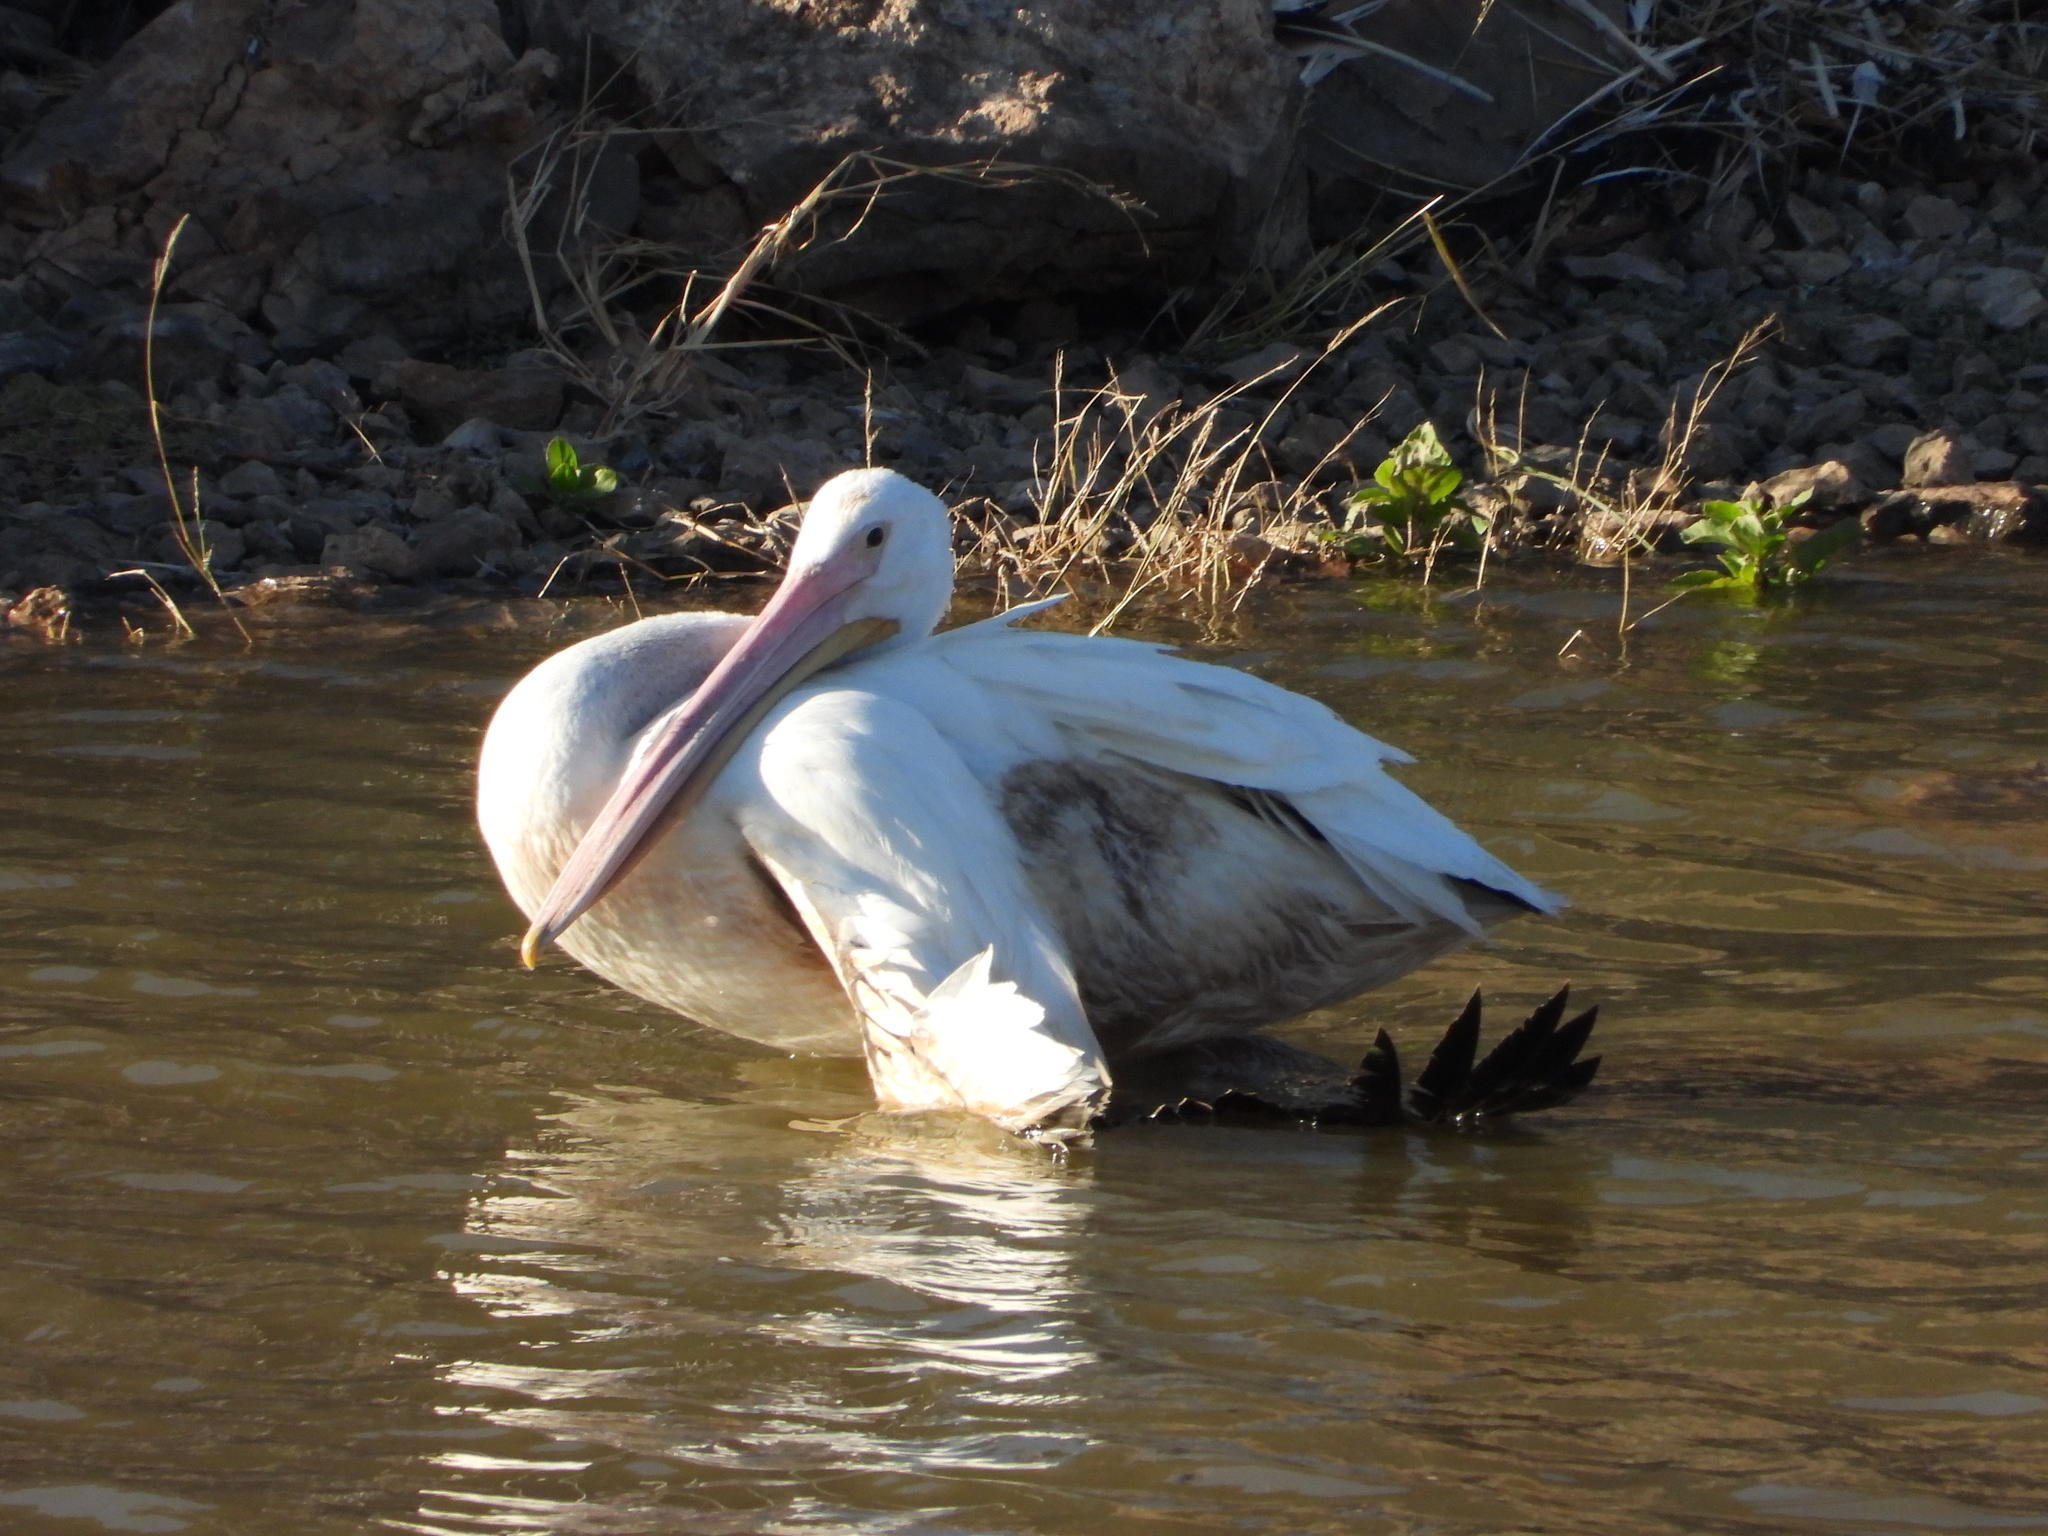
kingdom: Animalia
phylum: Chordata
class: Aves
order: Pelecaniformes
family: Pelecanidae
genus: Pelecanus
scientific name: Pelecanus erythrorhynchos
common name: American white pelican
